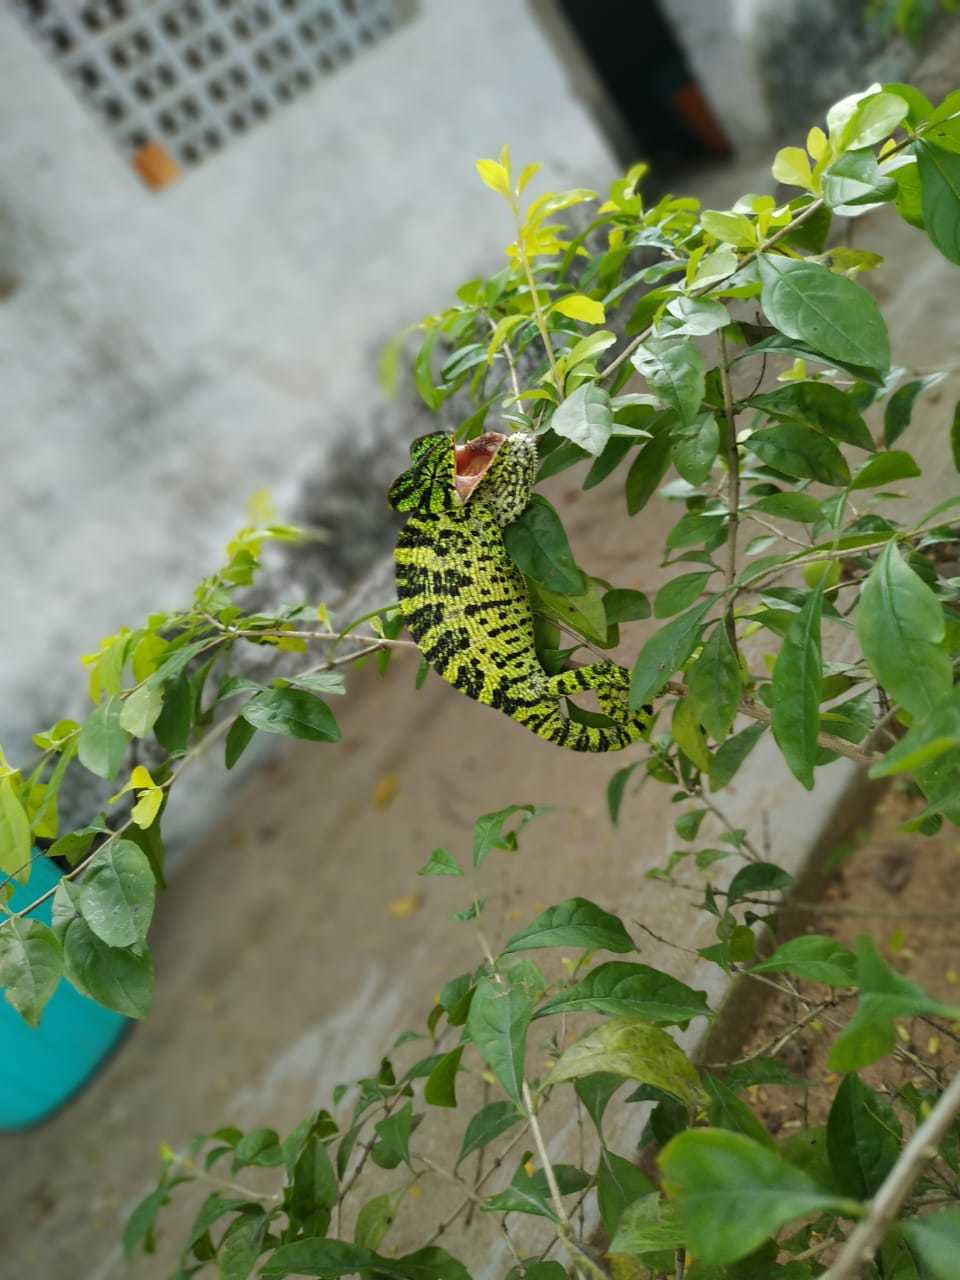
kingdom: Animalia
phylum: Chordata
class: Squamata
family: Chamaeleonidae
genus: Chamaeleo
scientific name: Chamaeleo zeylanicus
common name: Indian chameleon
